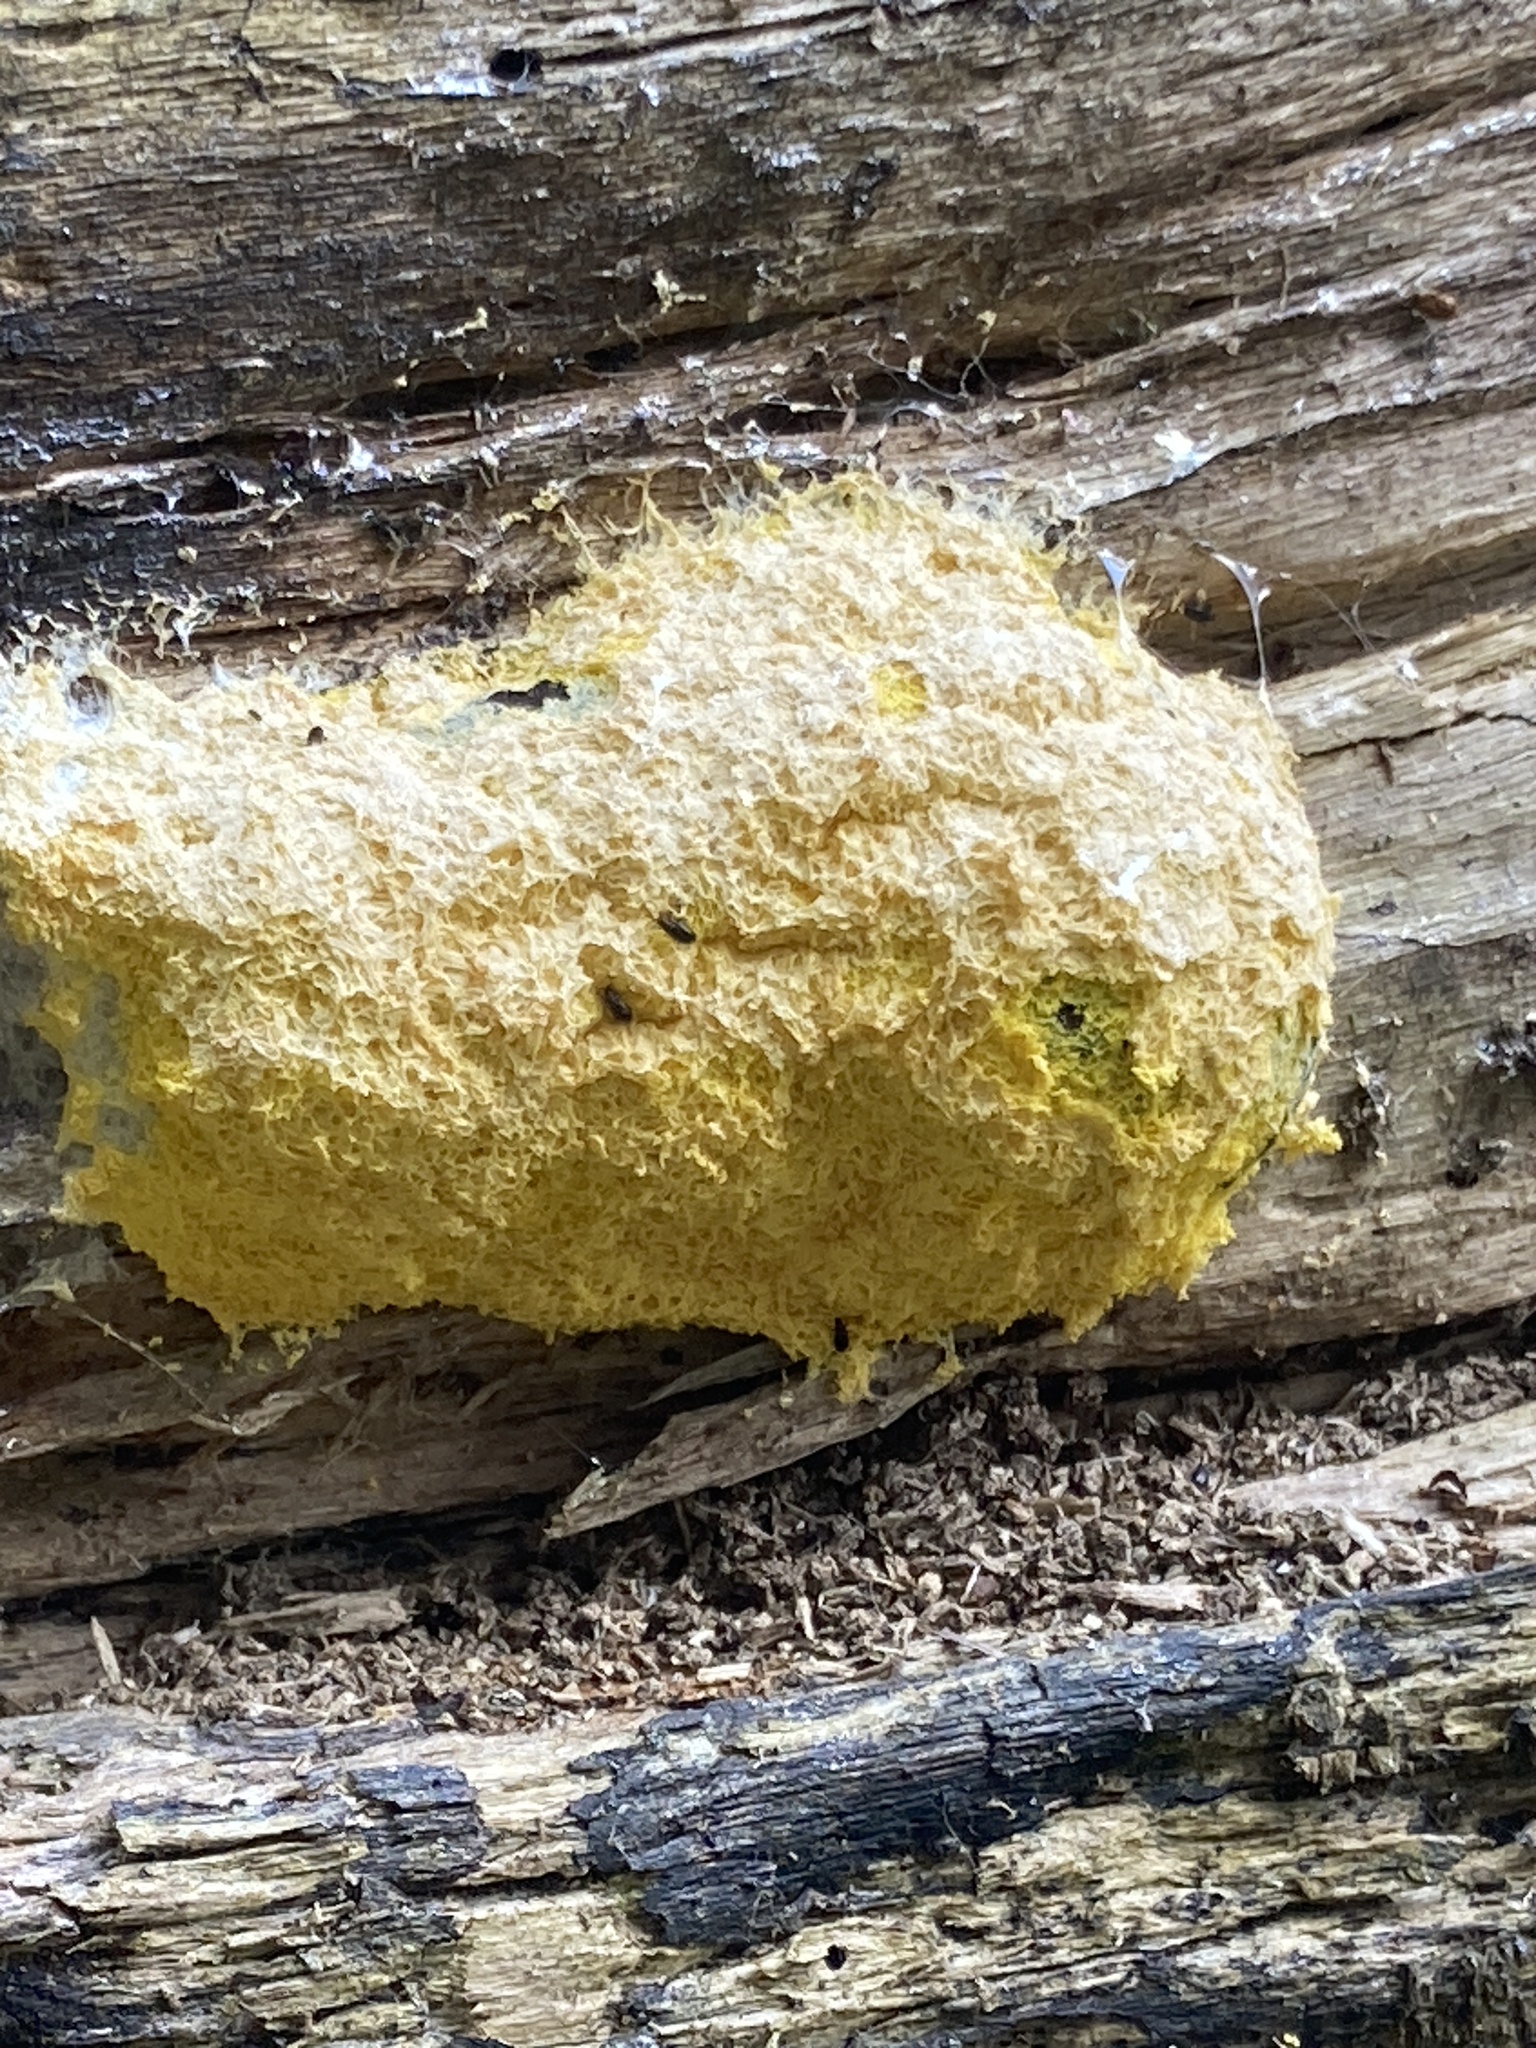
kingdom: Protozoa
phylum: Mycetozoa
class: Myxomycetes
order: Physarales
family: Physaraceae
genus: Fuligo
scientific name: Fuligo septica
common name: Dog vomit slime mold
